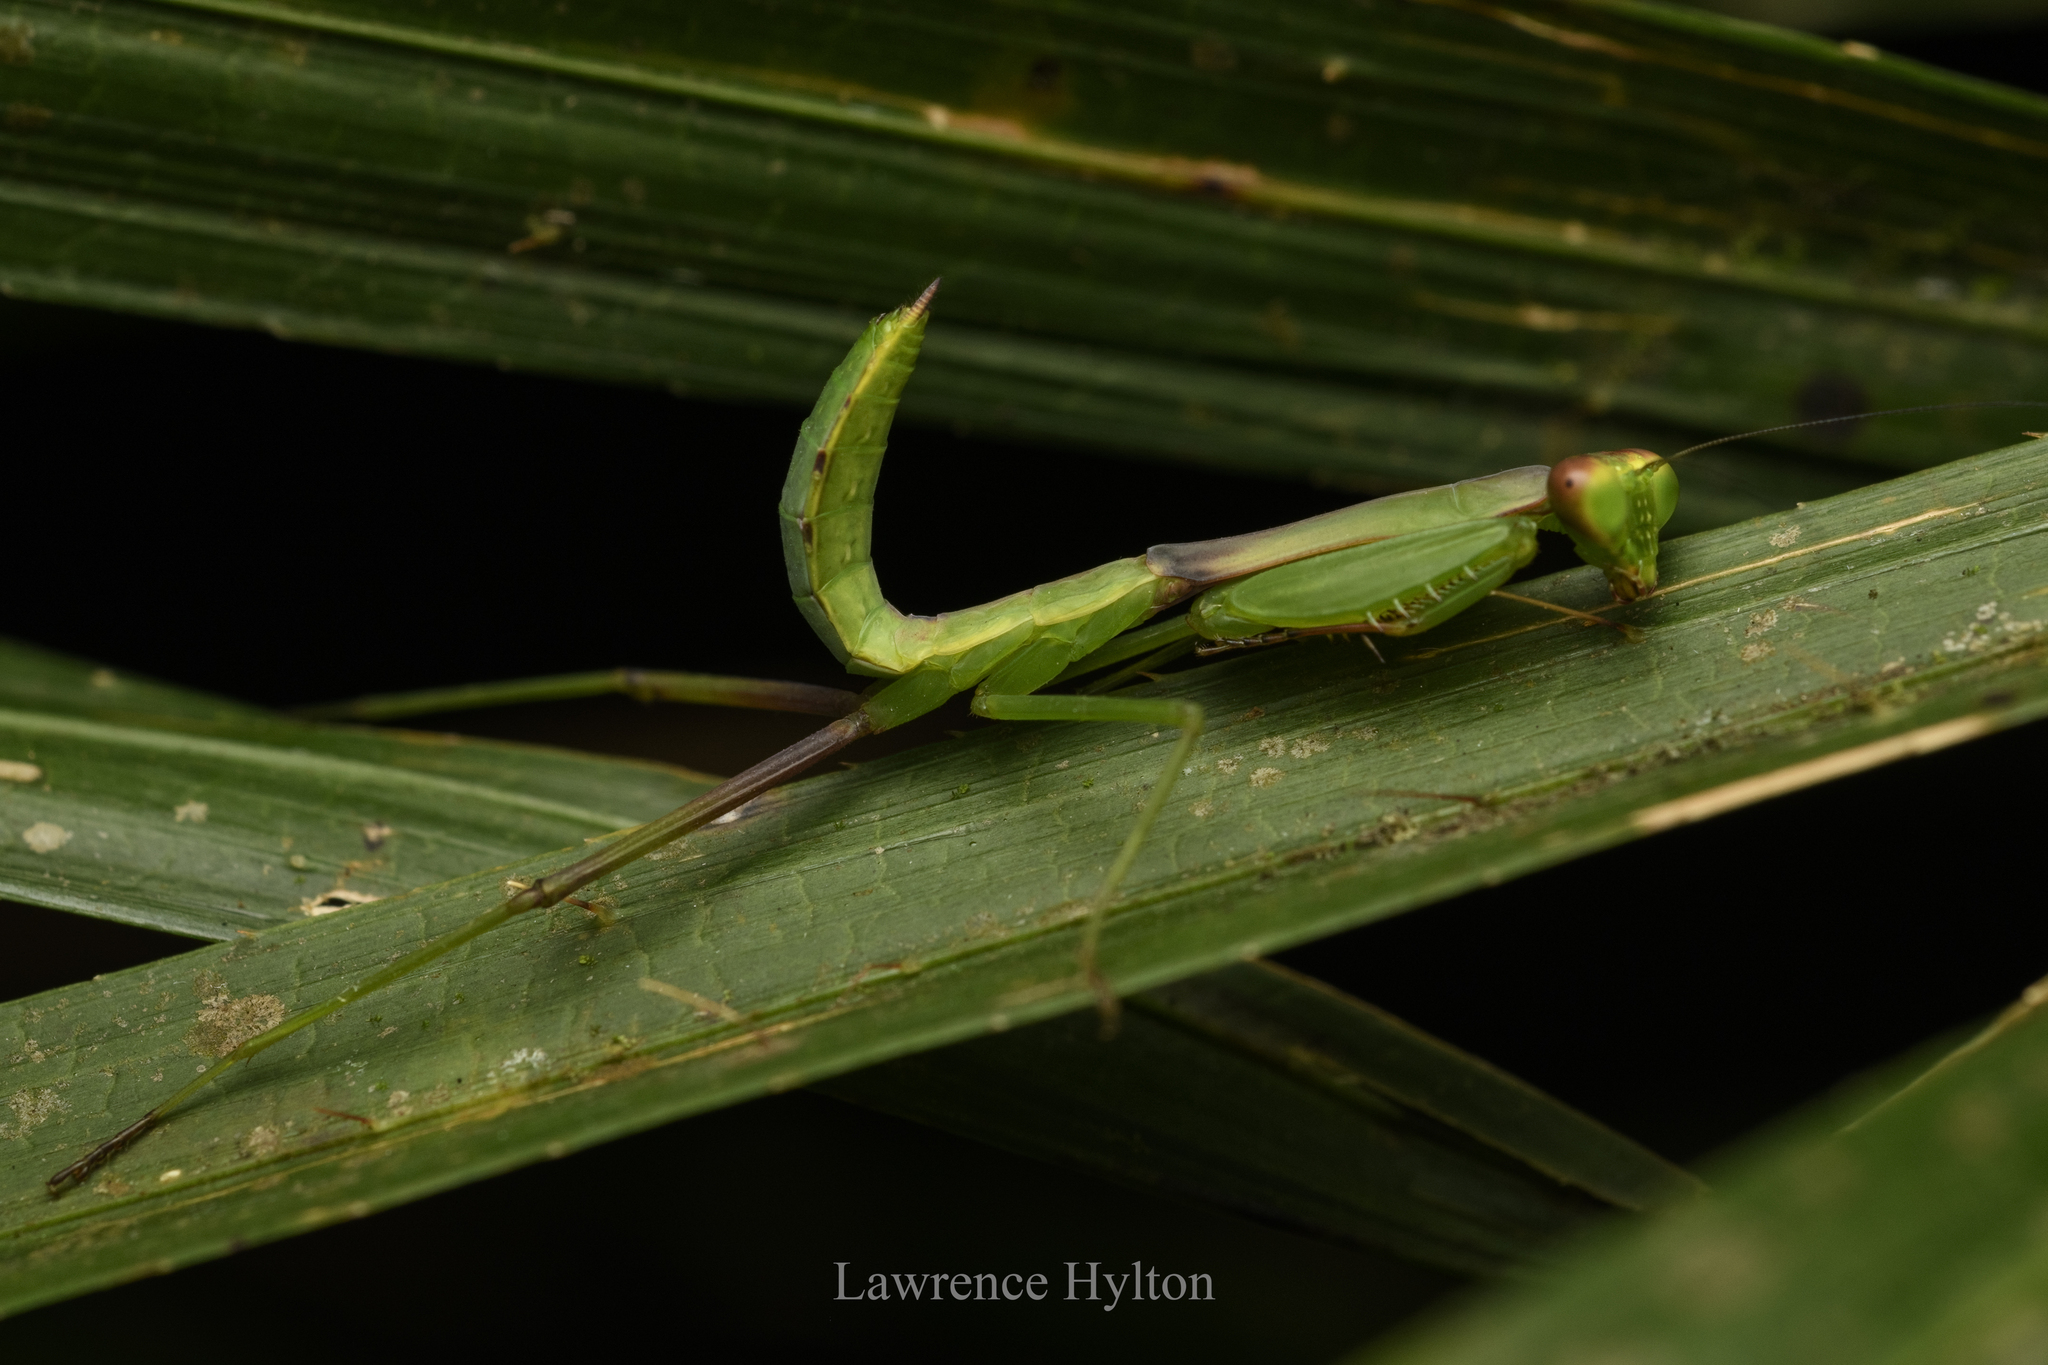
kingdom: Animalia
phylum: Arthropoda
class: Insecta
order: Mantodea
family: Mantidae
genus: Titanodula
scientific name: Titanodula formosana
